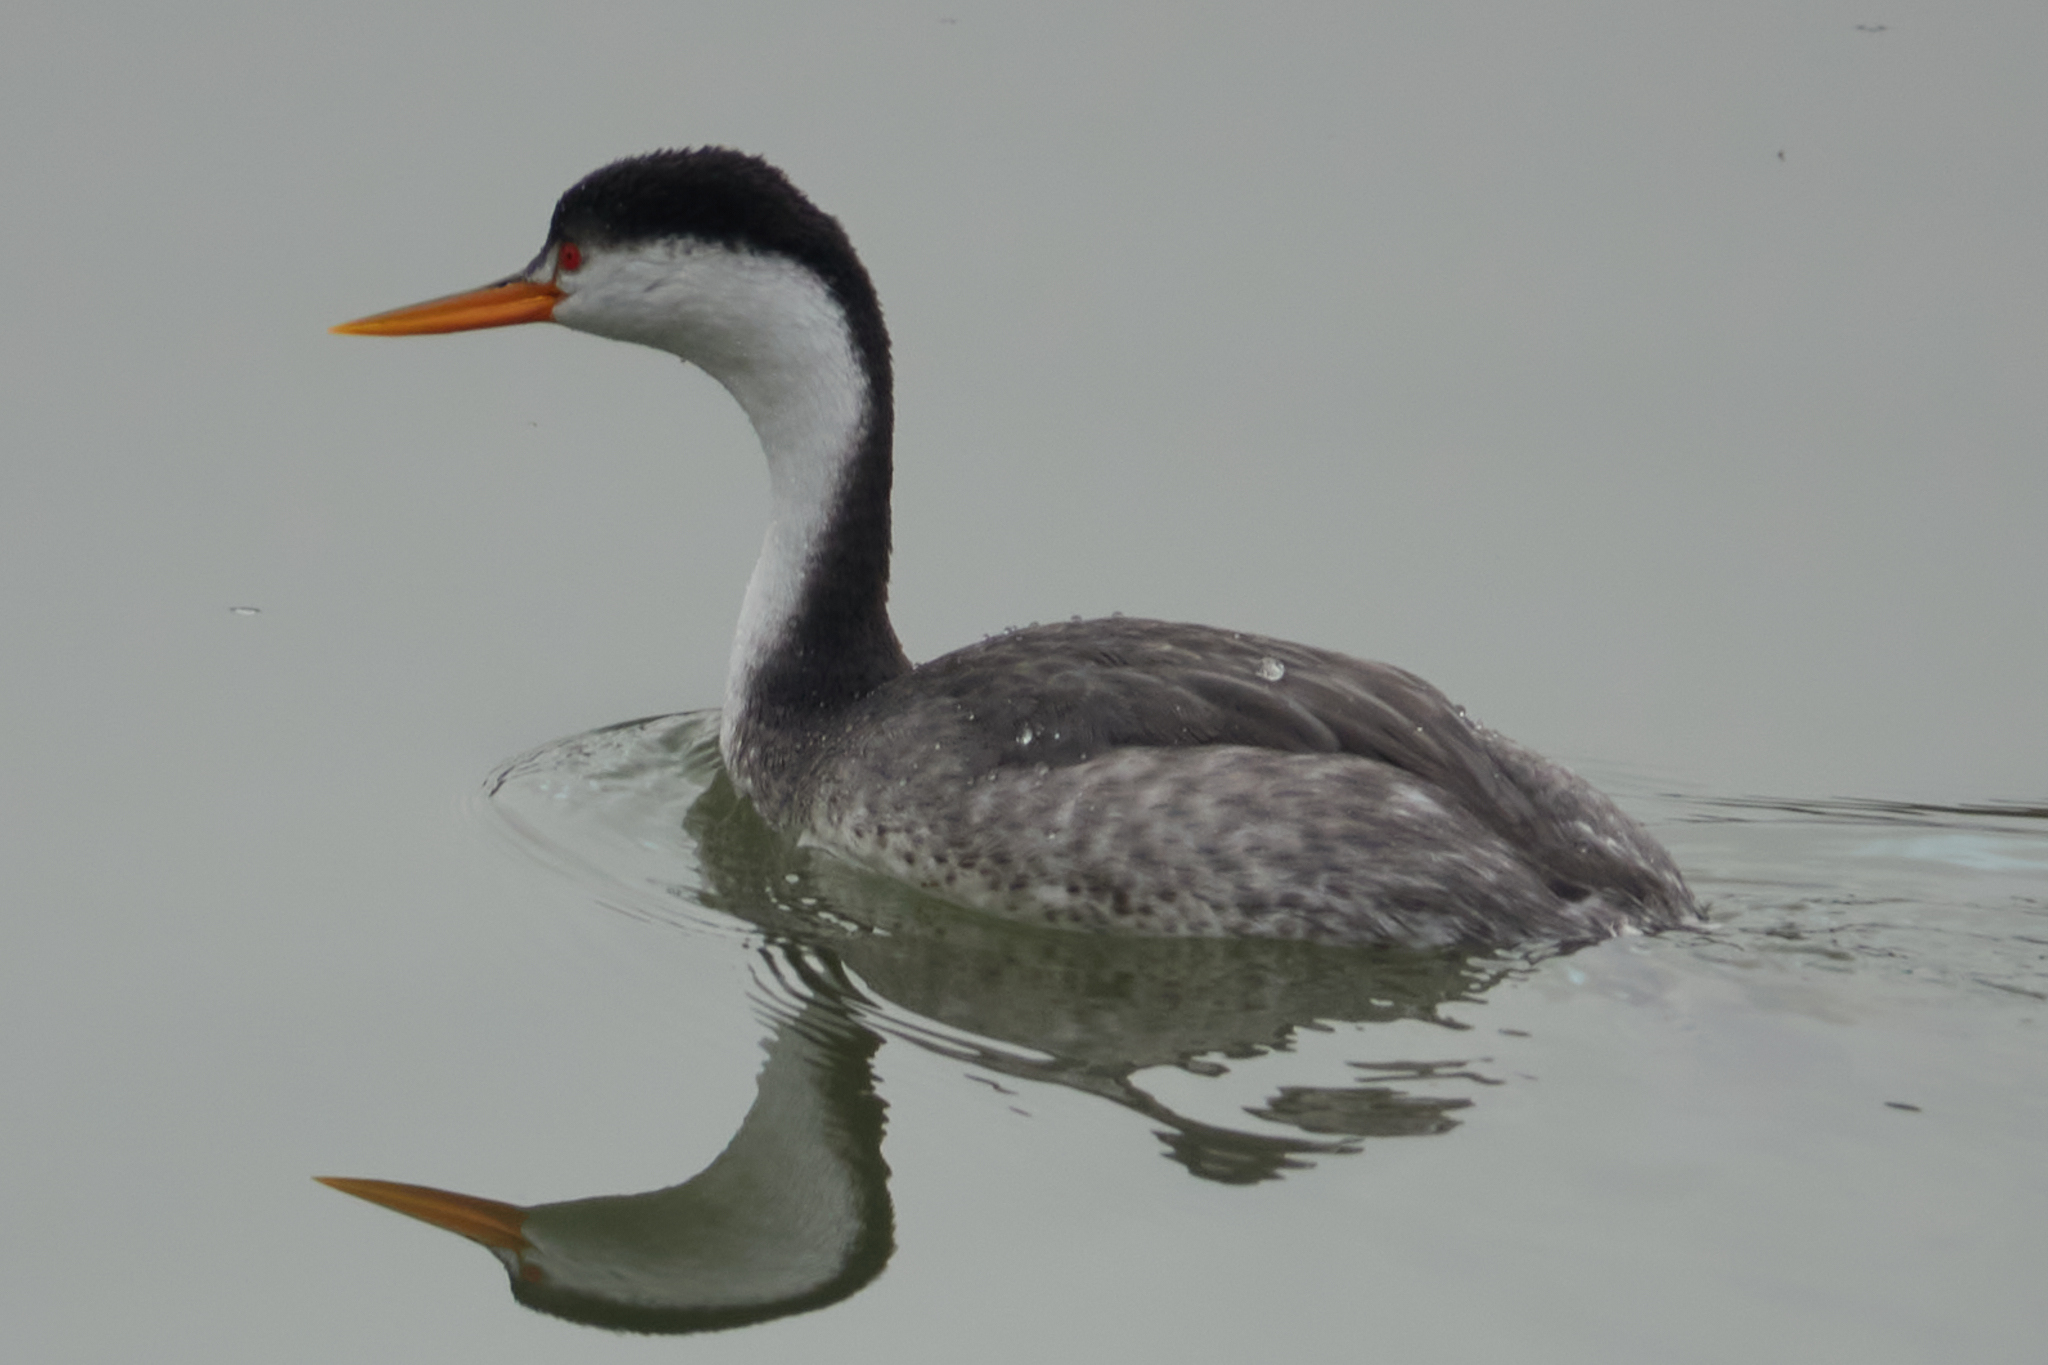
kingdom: Animalia
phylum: Chordata
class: Aves
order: Podicipediformes
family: Podicipedidae
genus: Aechmophorus
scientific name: Aechmophorus clarkii
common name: Clark's grebe
